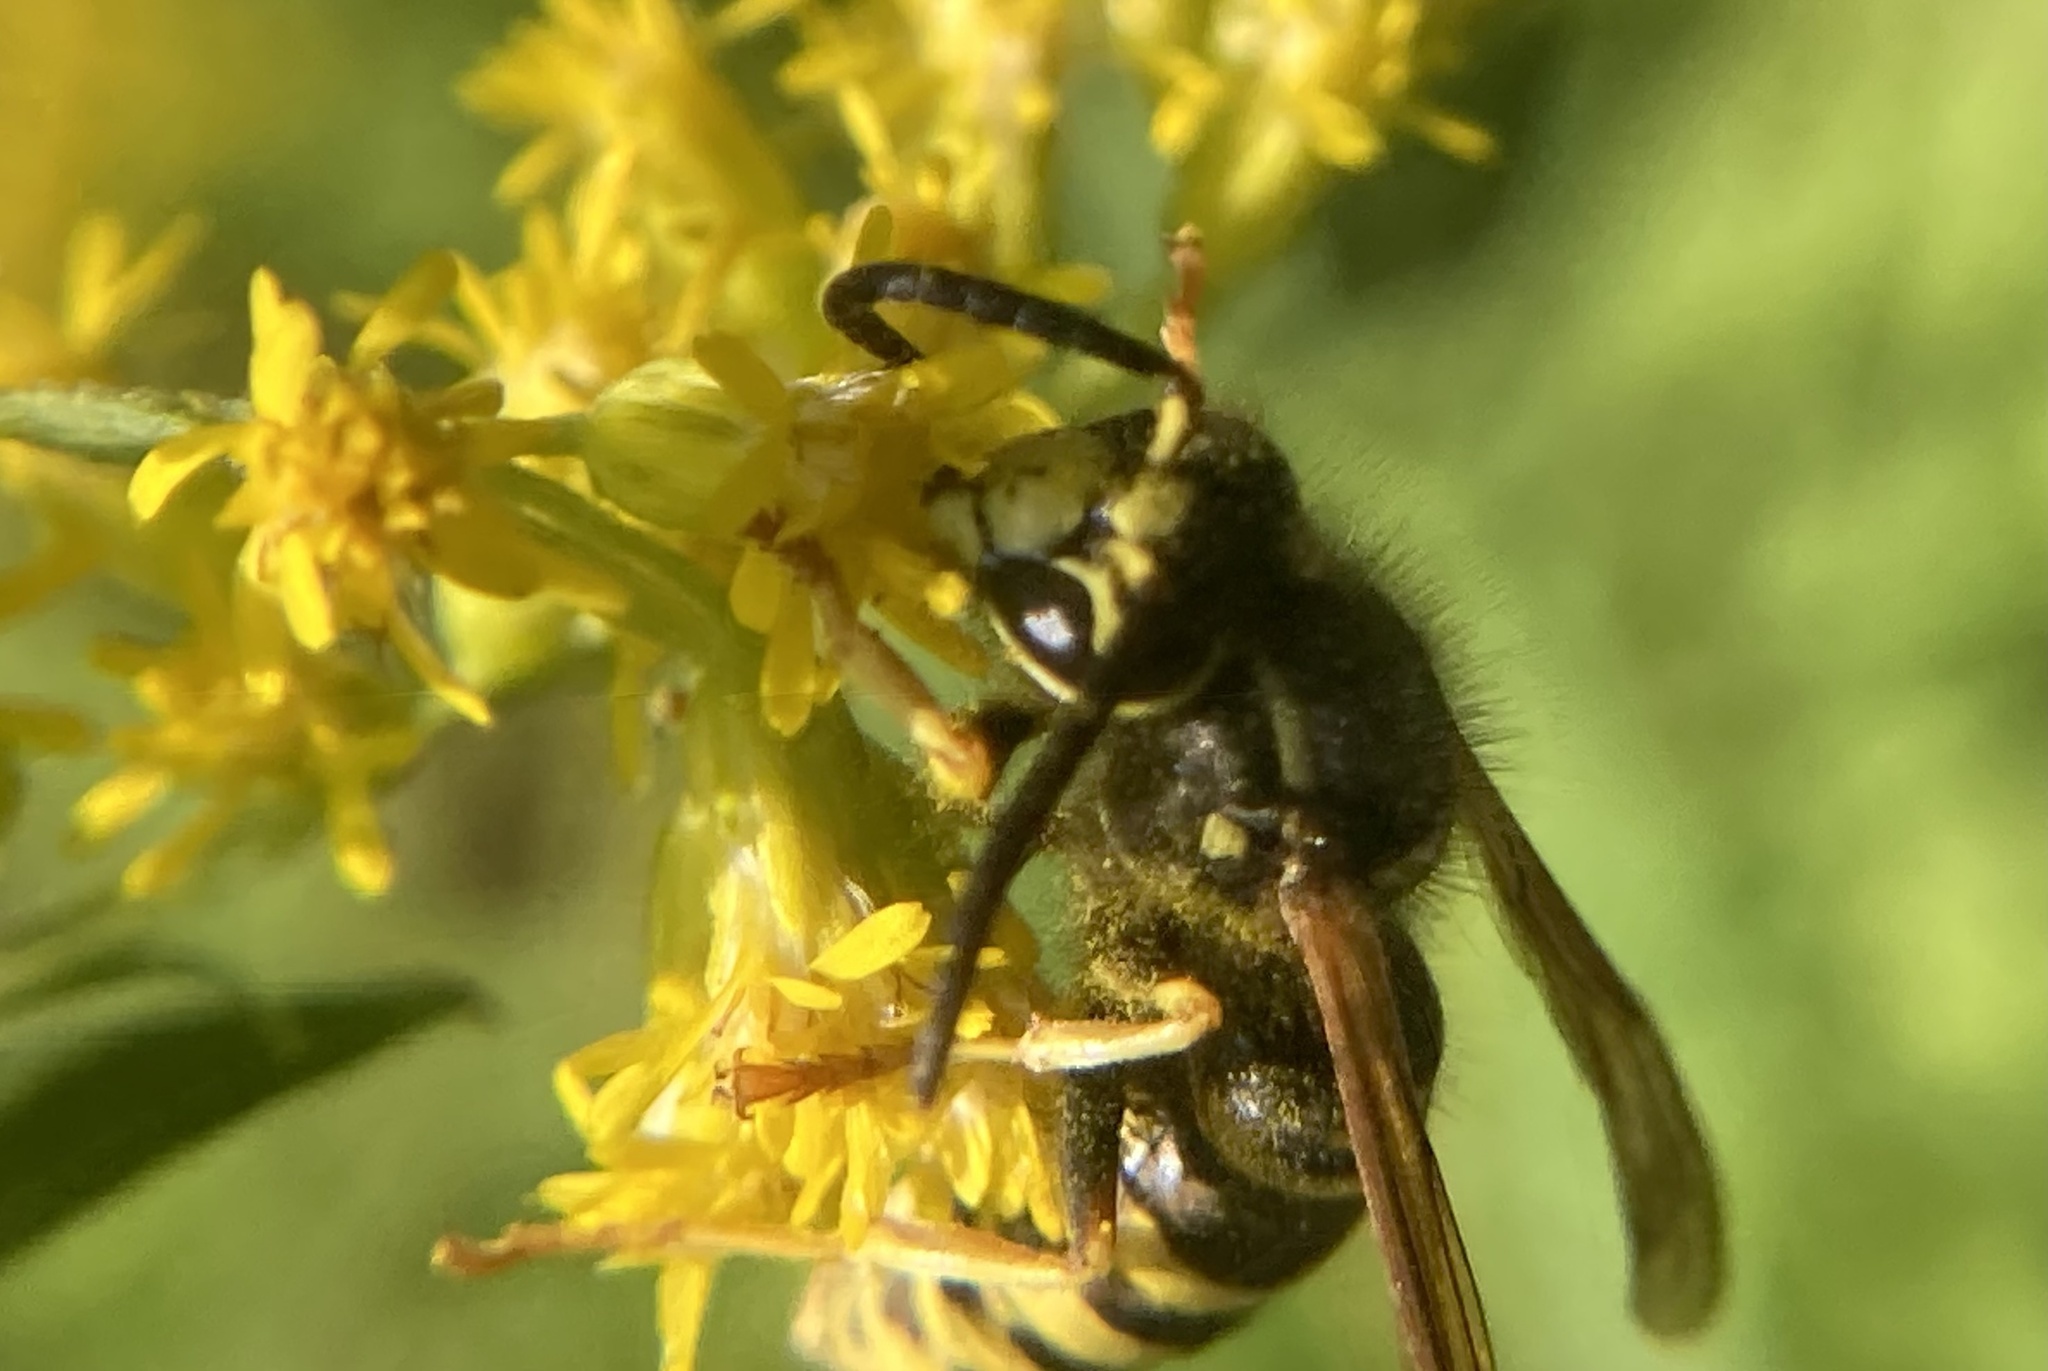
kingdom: Animalia
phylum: Arthropoda
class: Insecta
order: Hymenoptera
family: Vespidae
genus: Vespula
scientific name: Vespula maculifrons
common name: Eastern yellowjacket
